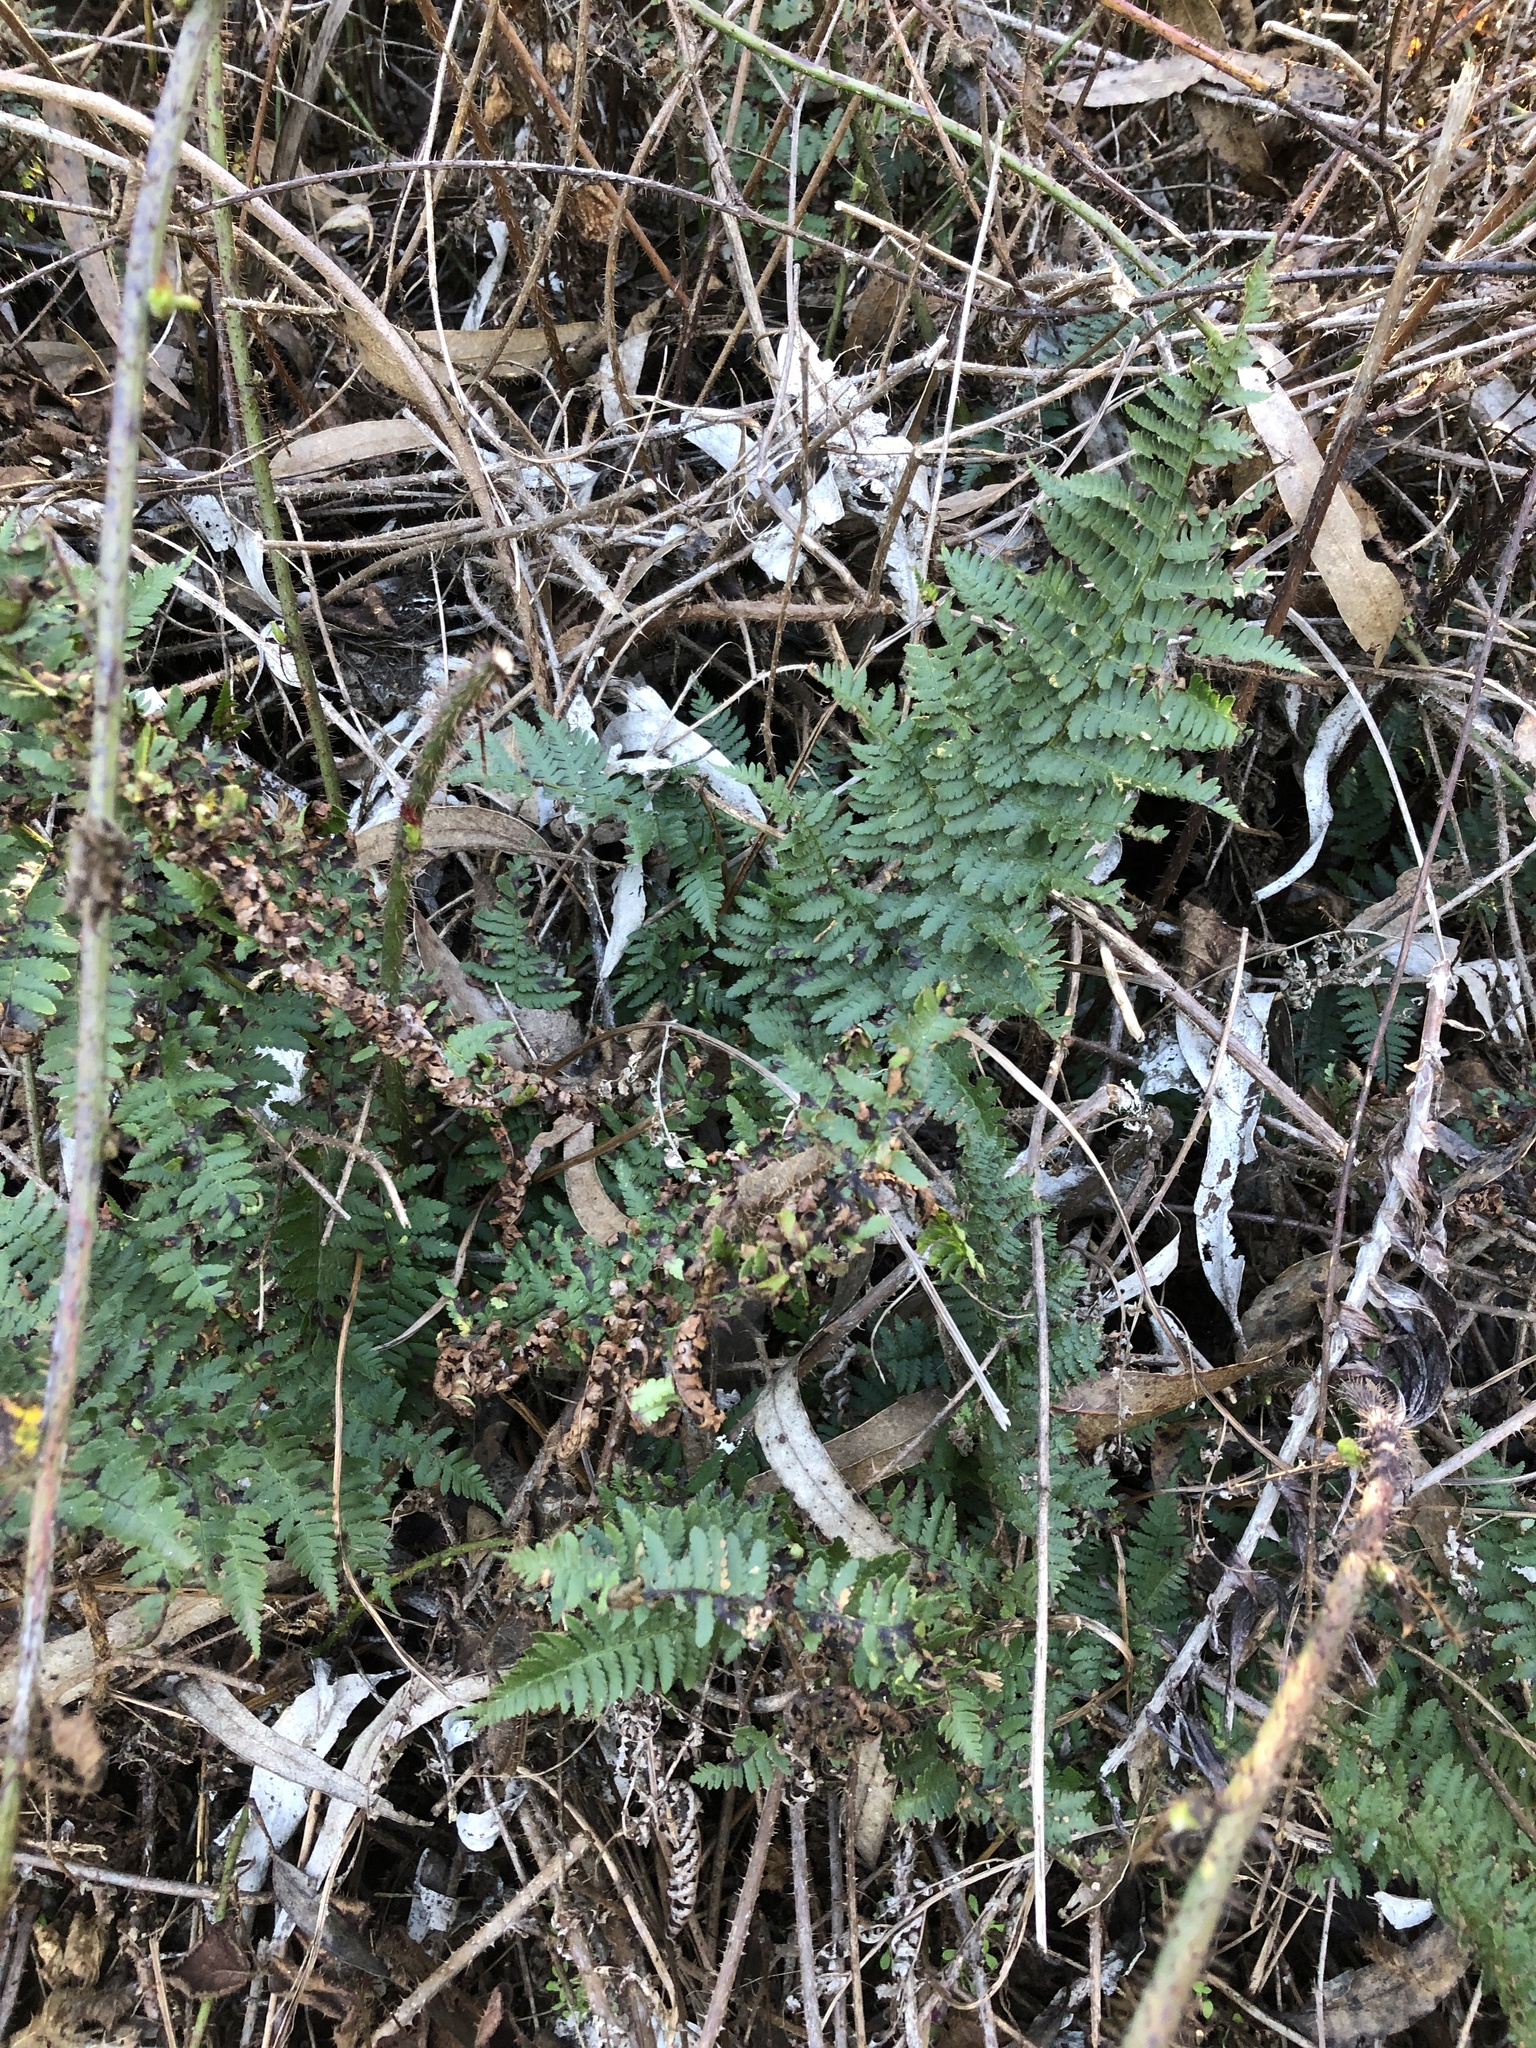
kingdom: Plantae
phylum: Tracheophyta
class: Polypodiopsida
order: Polypodiales
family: Dryopteridaceae
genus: Dryopteris
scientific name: Dryopteris arguta
